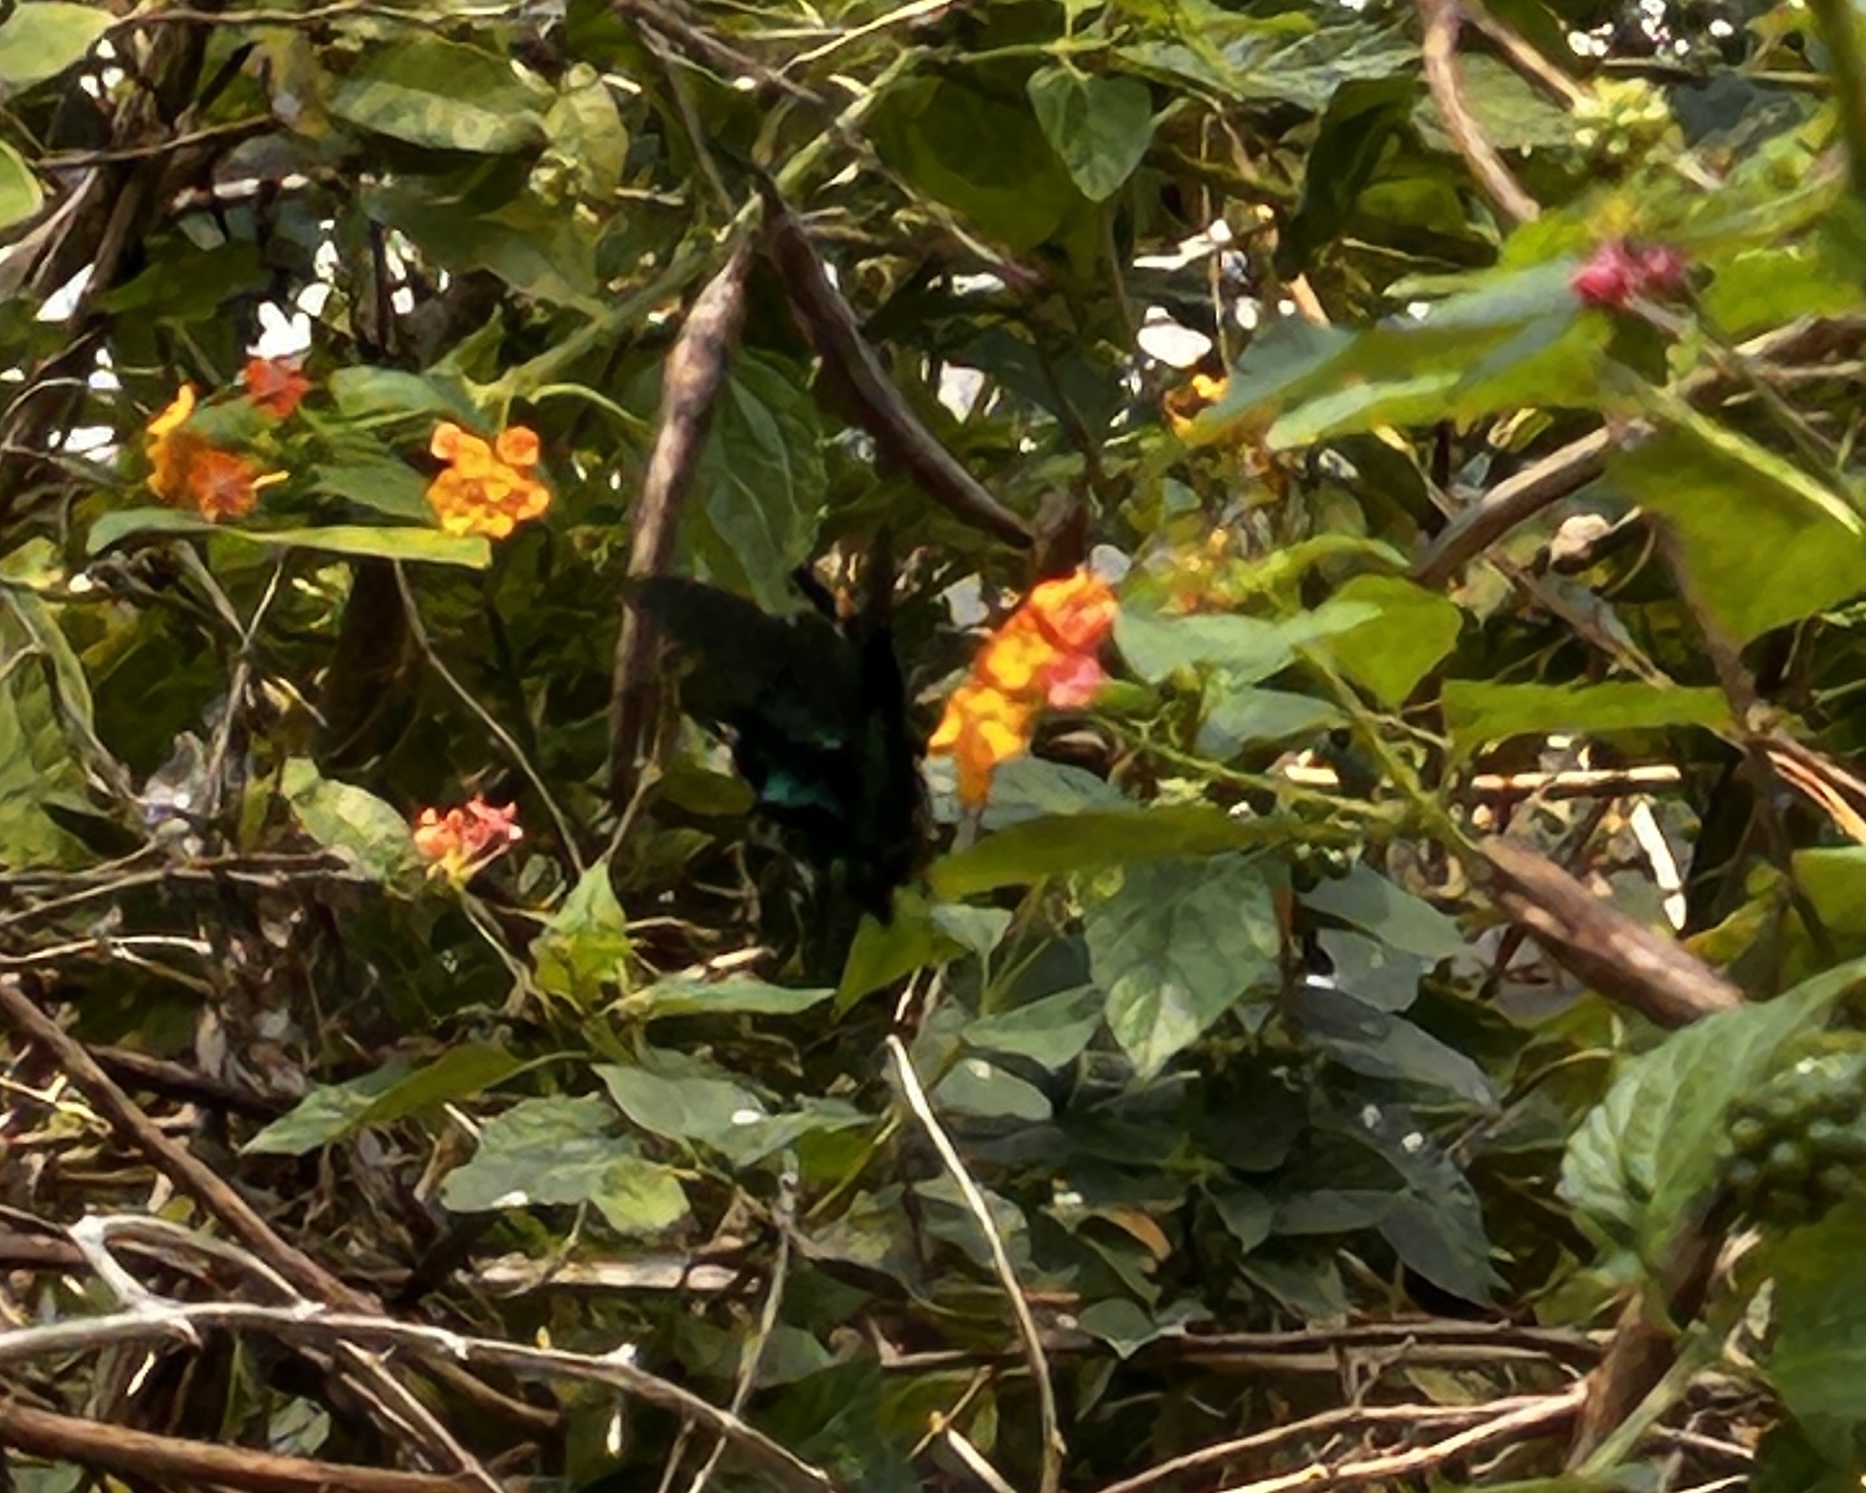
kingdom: Animalia
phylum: Arthropoda
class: Insecta
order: Lepidoptera
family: Papilionidae
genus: Papilio
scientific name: Papilio paris
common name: Paris peacock
